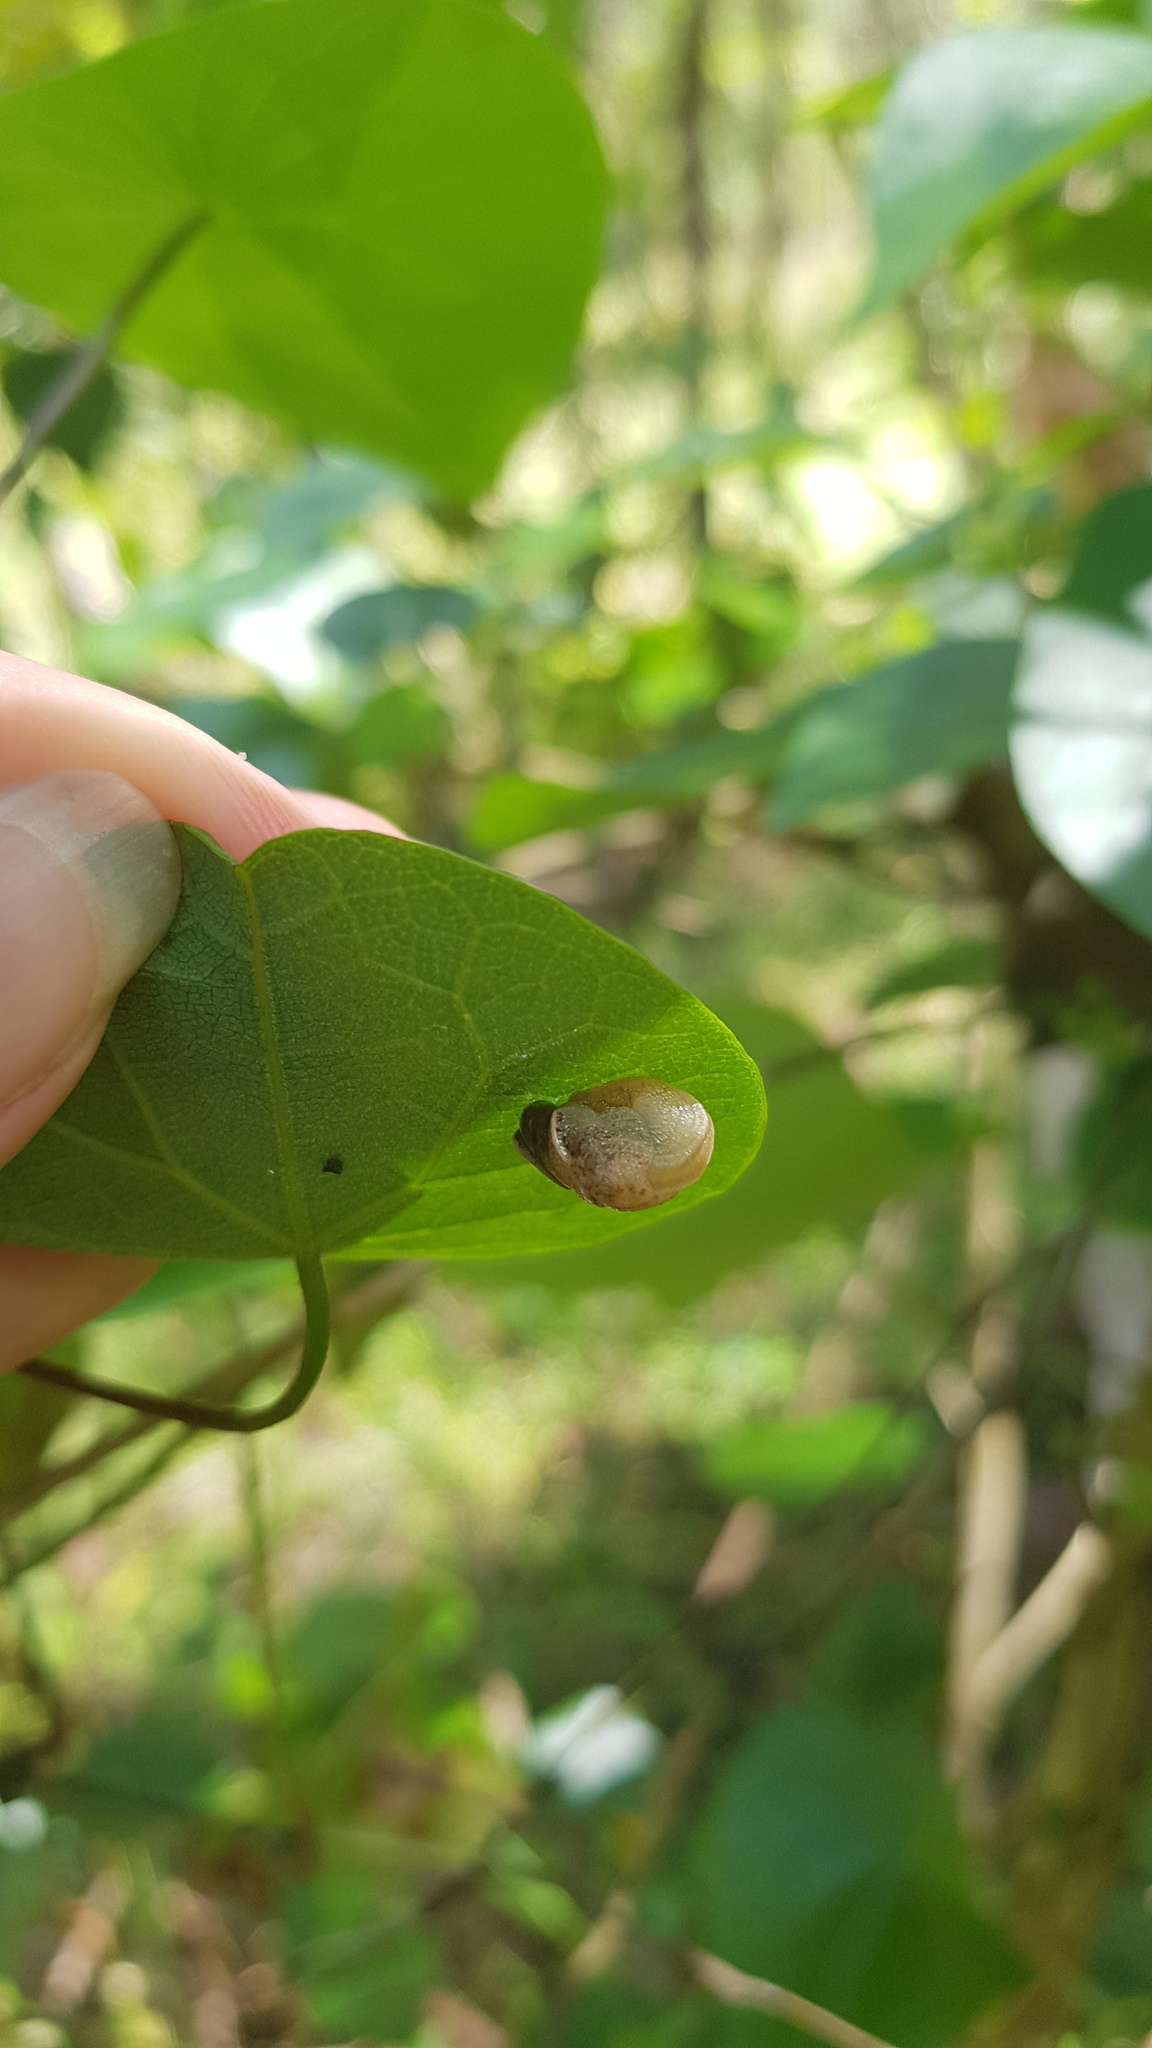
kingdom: Animalia
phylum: Mollusca
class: Gastropoda
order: Stylommatophora
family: Helicarionidae
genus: Ubiquitarion
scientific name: Ubiquitarion iridis
